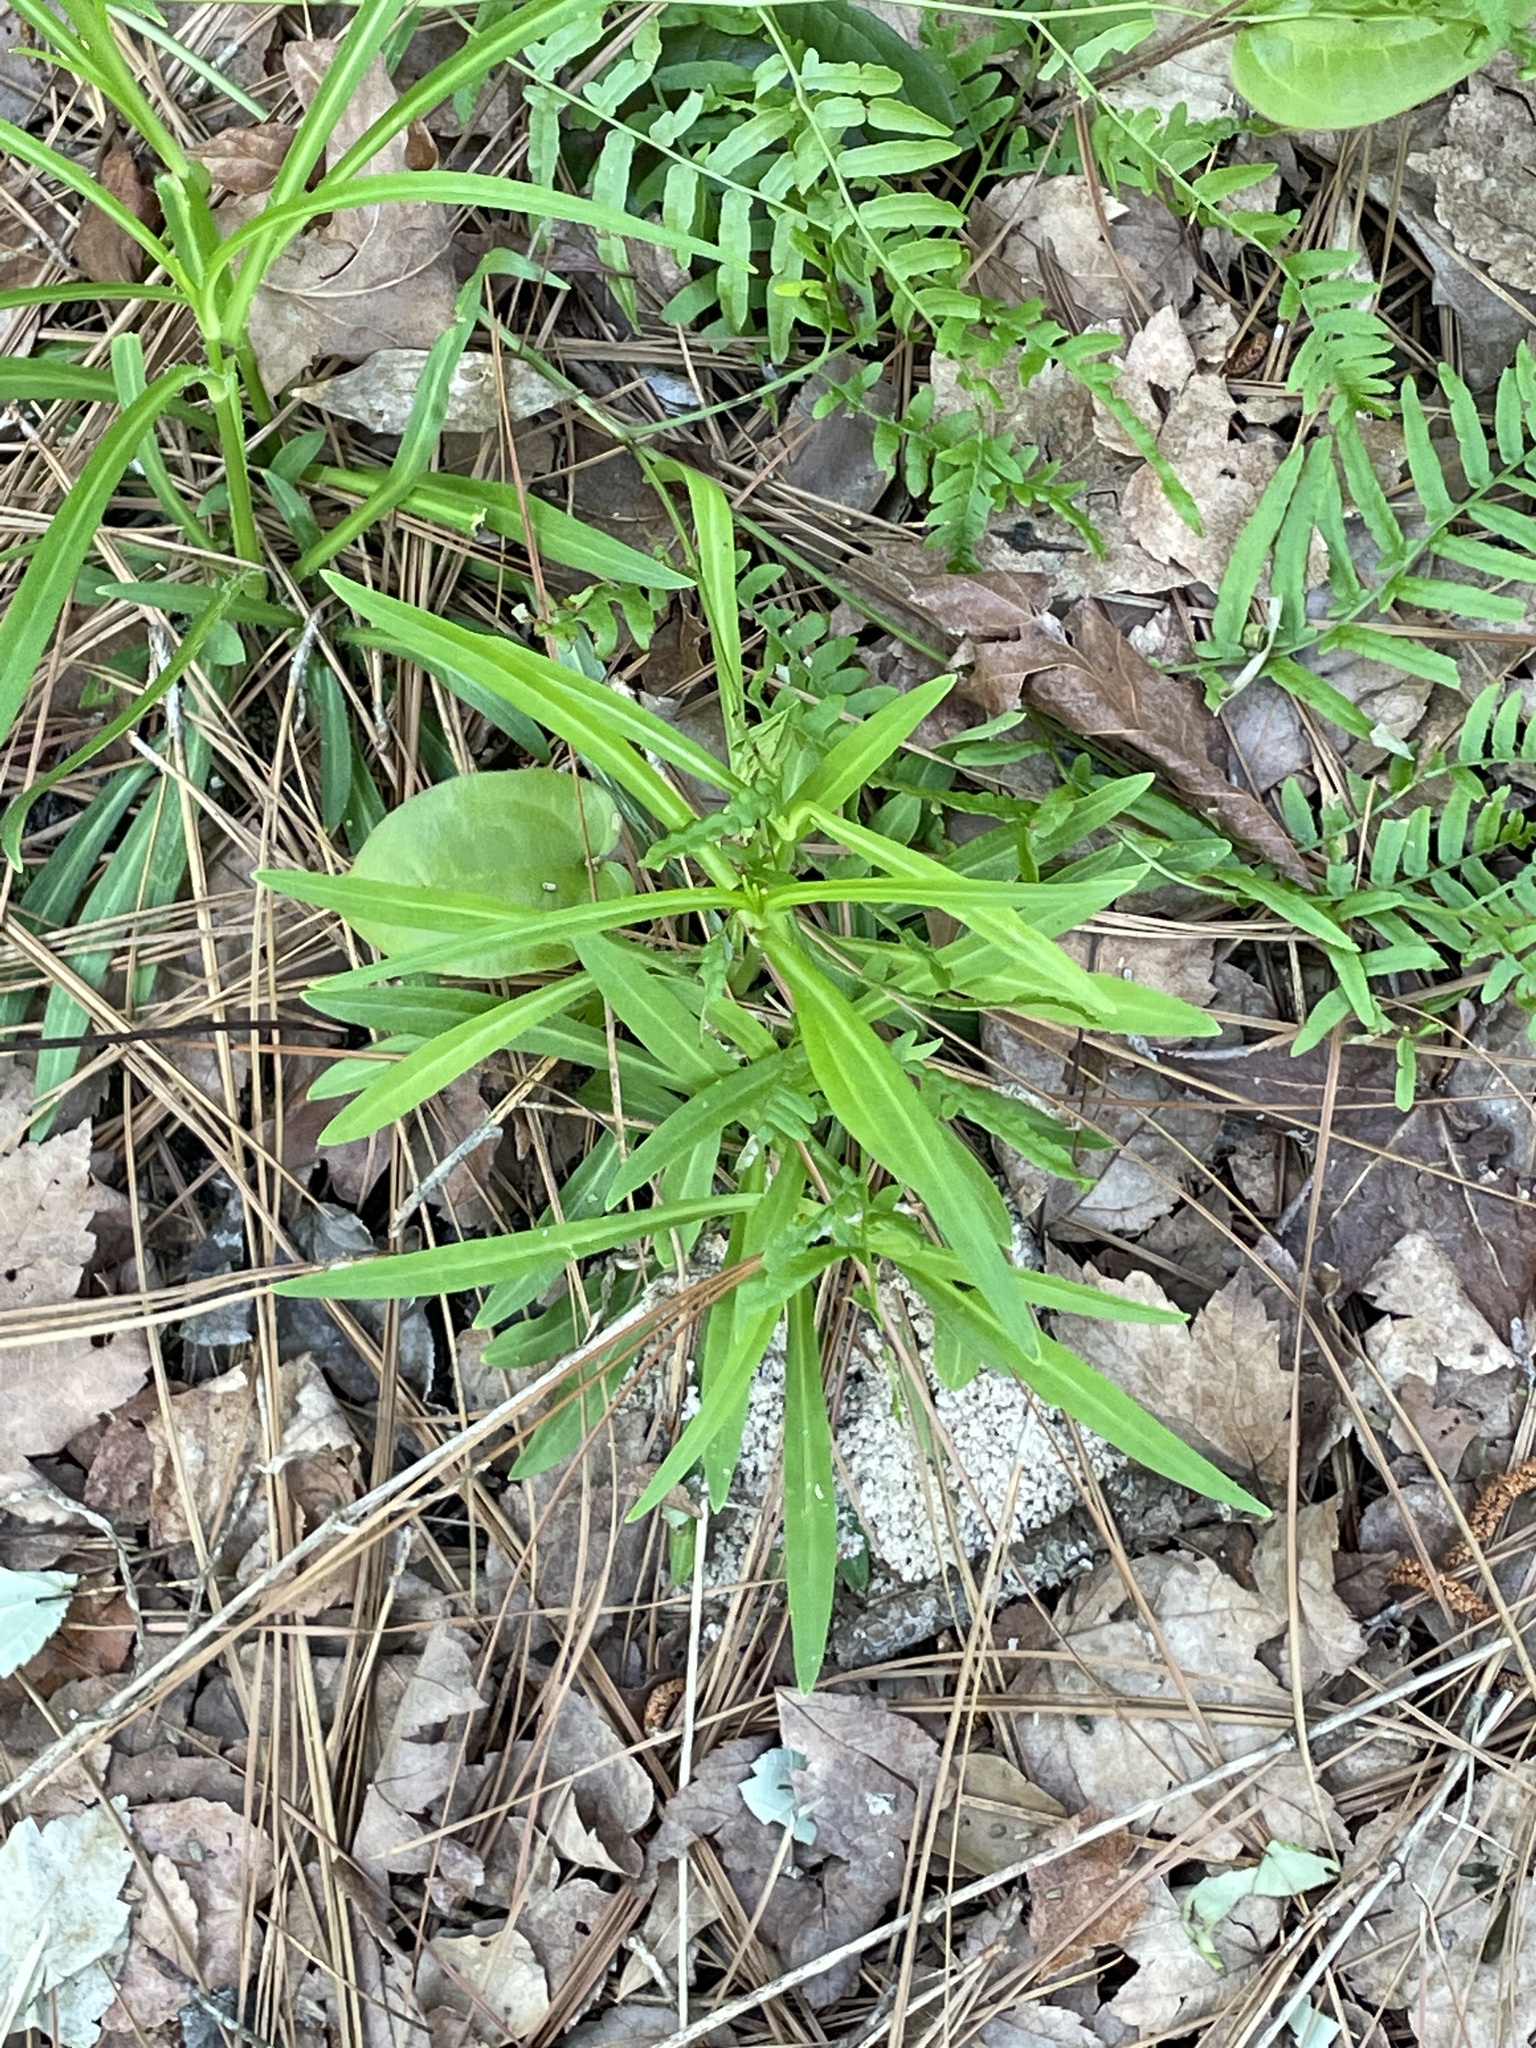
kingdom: Plantae
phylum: Tracheophyta
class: Magnoliopsida
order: Caryophyllales
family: Caryophyllaceae
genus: Silene
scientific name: Silene subciliata
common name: Prairie fire-pink
